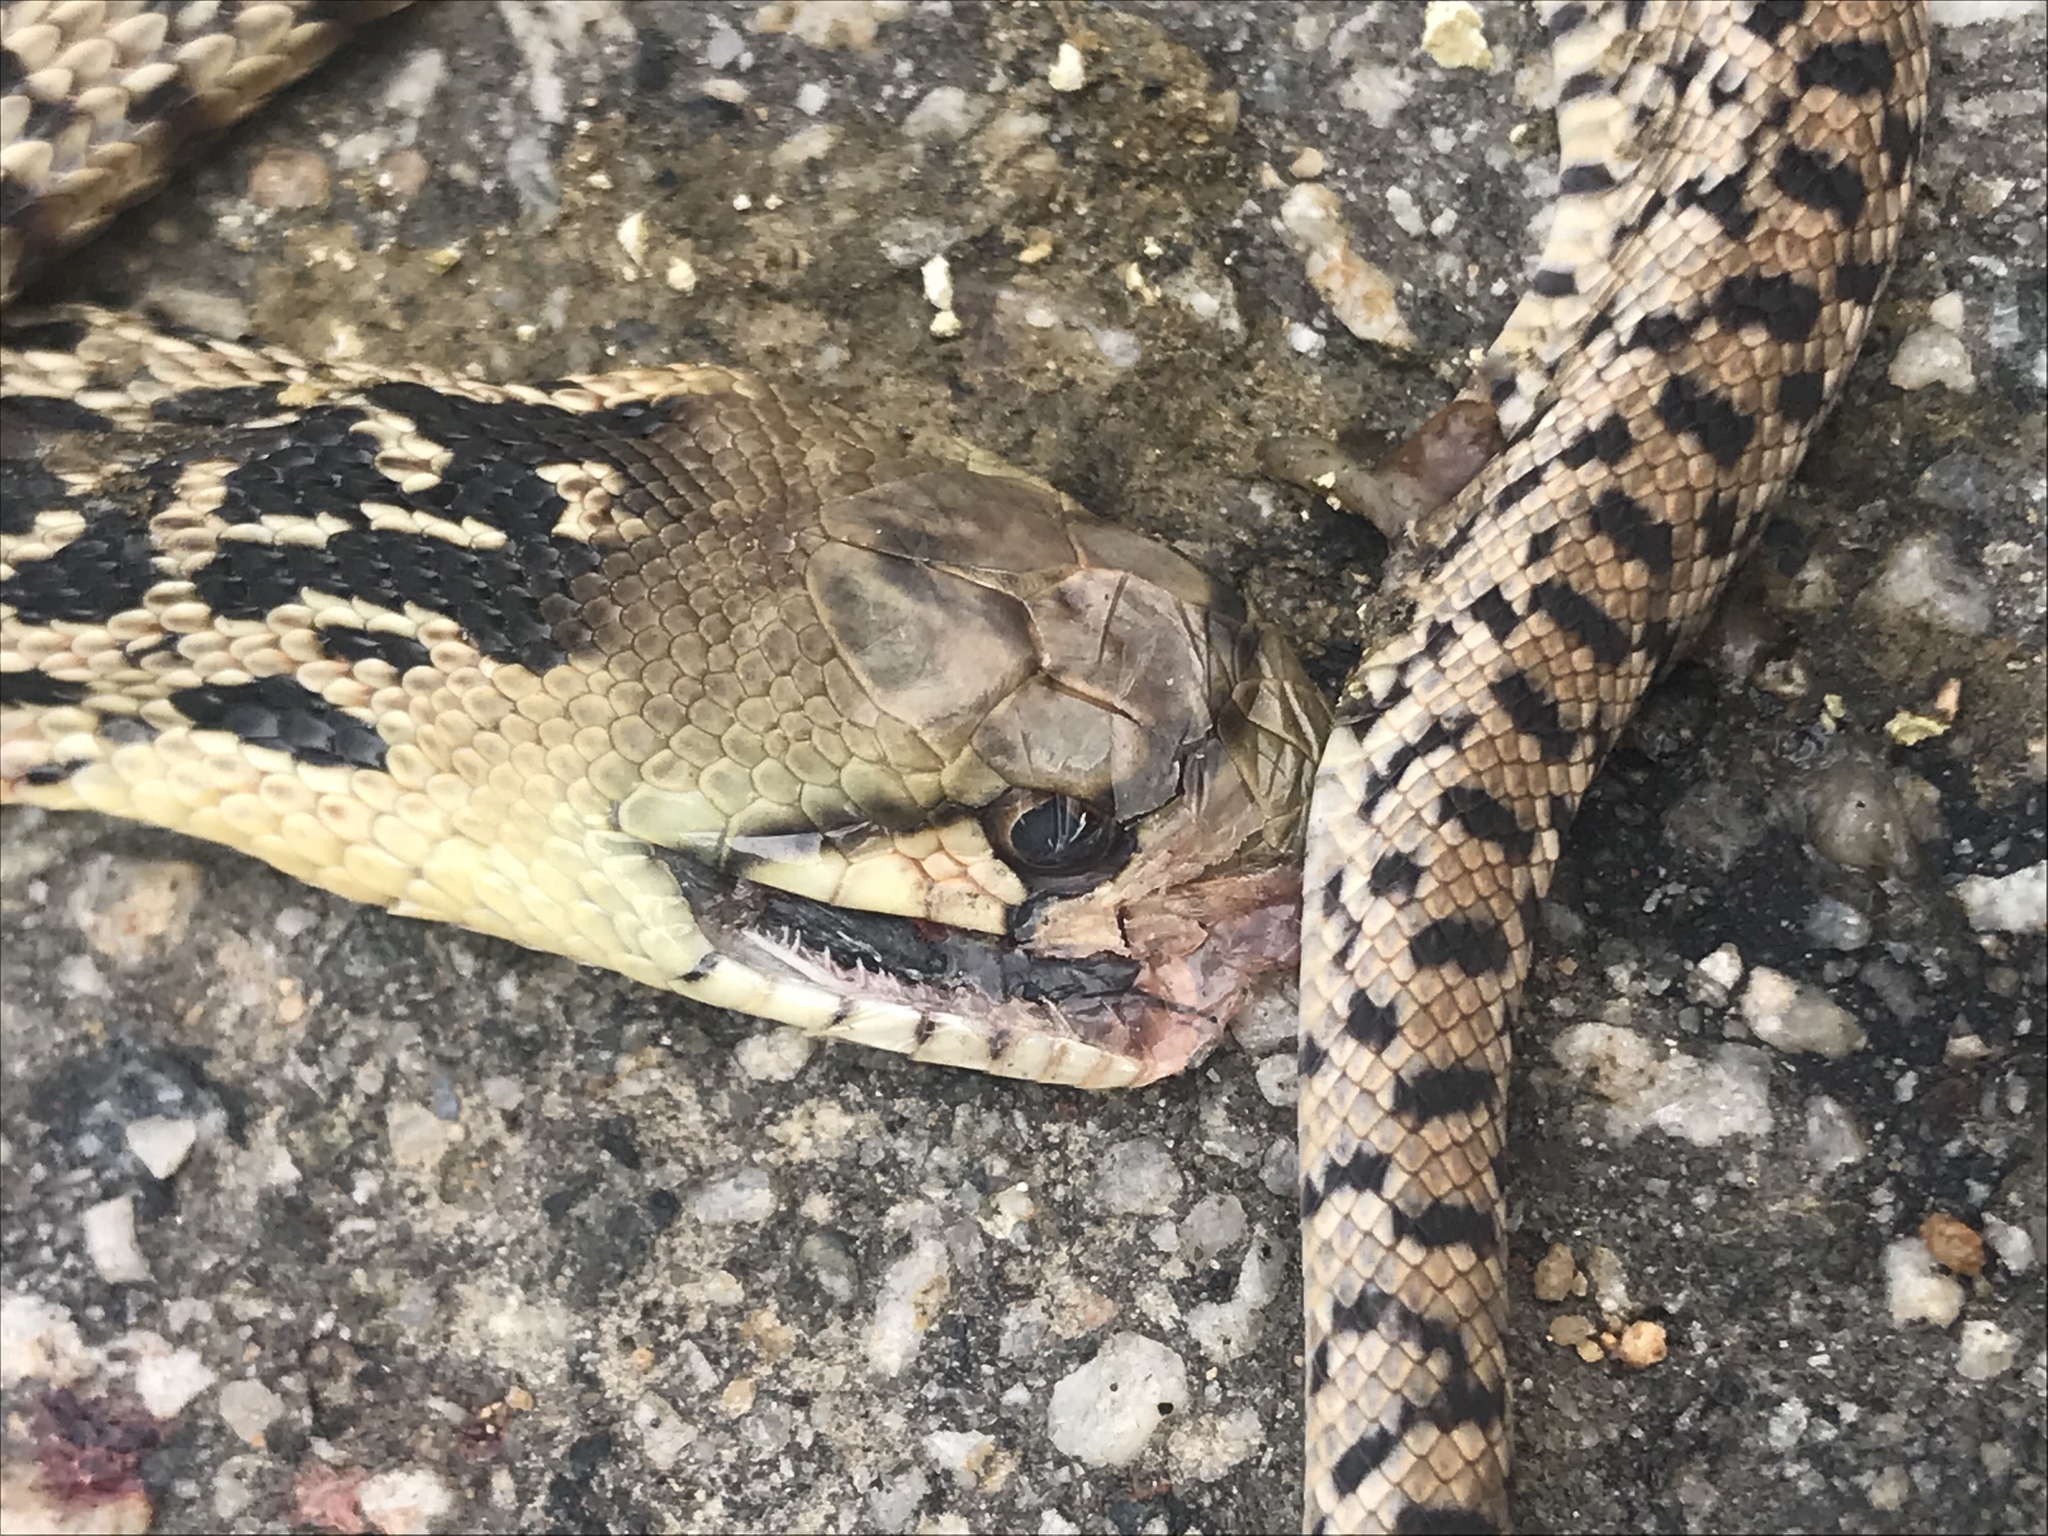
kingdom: Animalia
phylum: Chordata
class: Squamata
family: Colubridae
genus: Pituophis
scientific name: Pituophis catenifer
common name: Gopher snake
